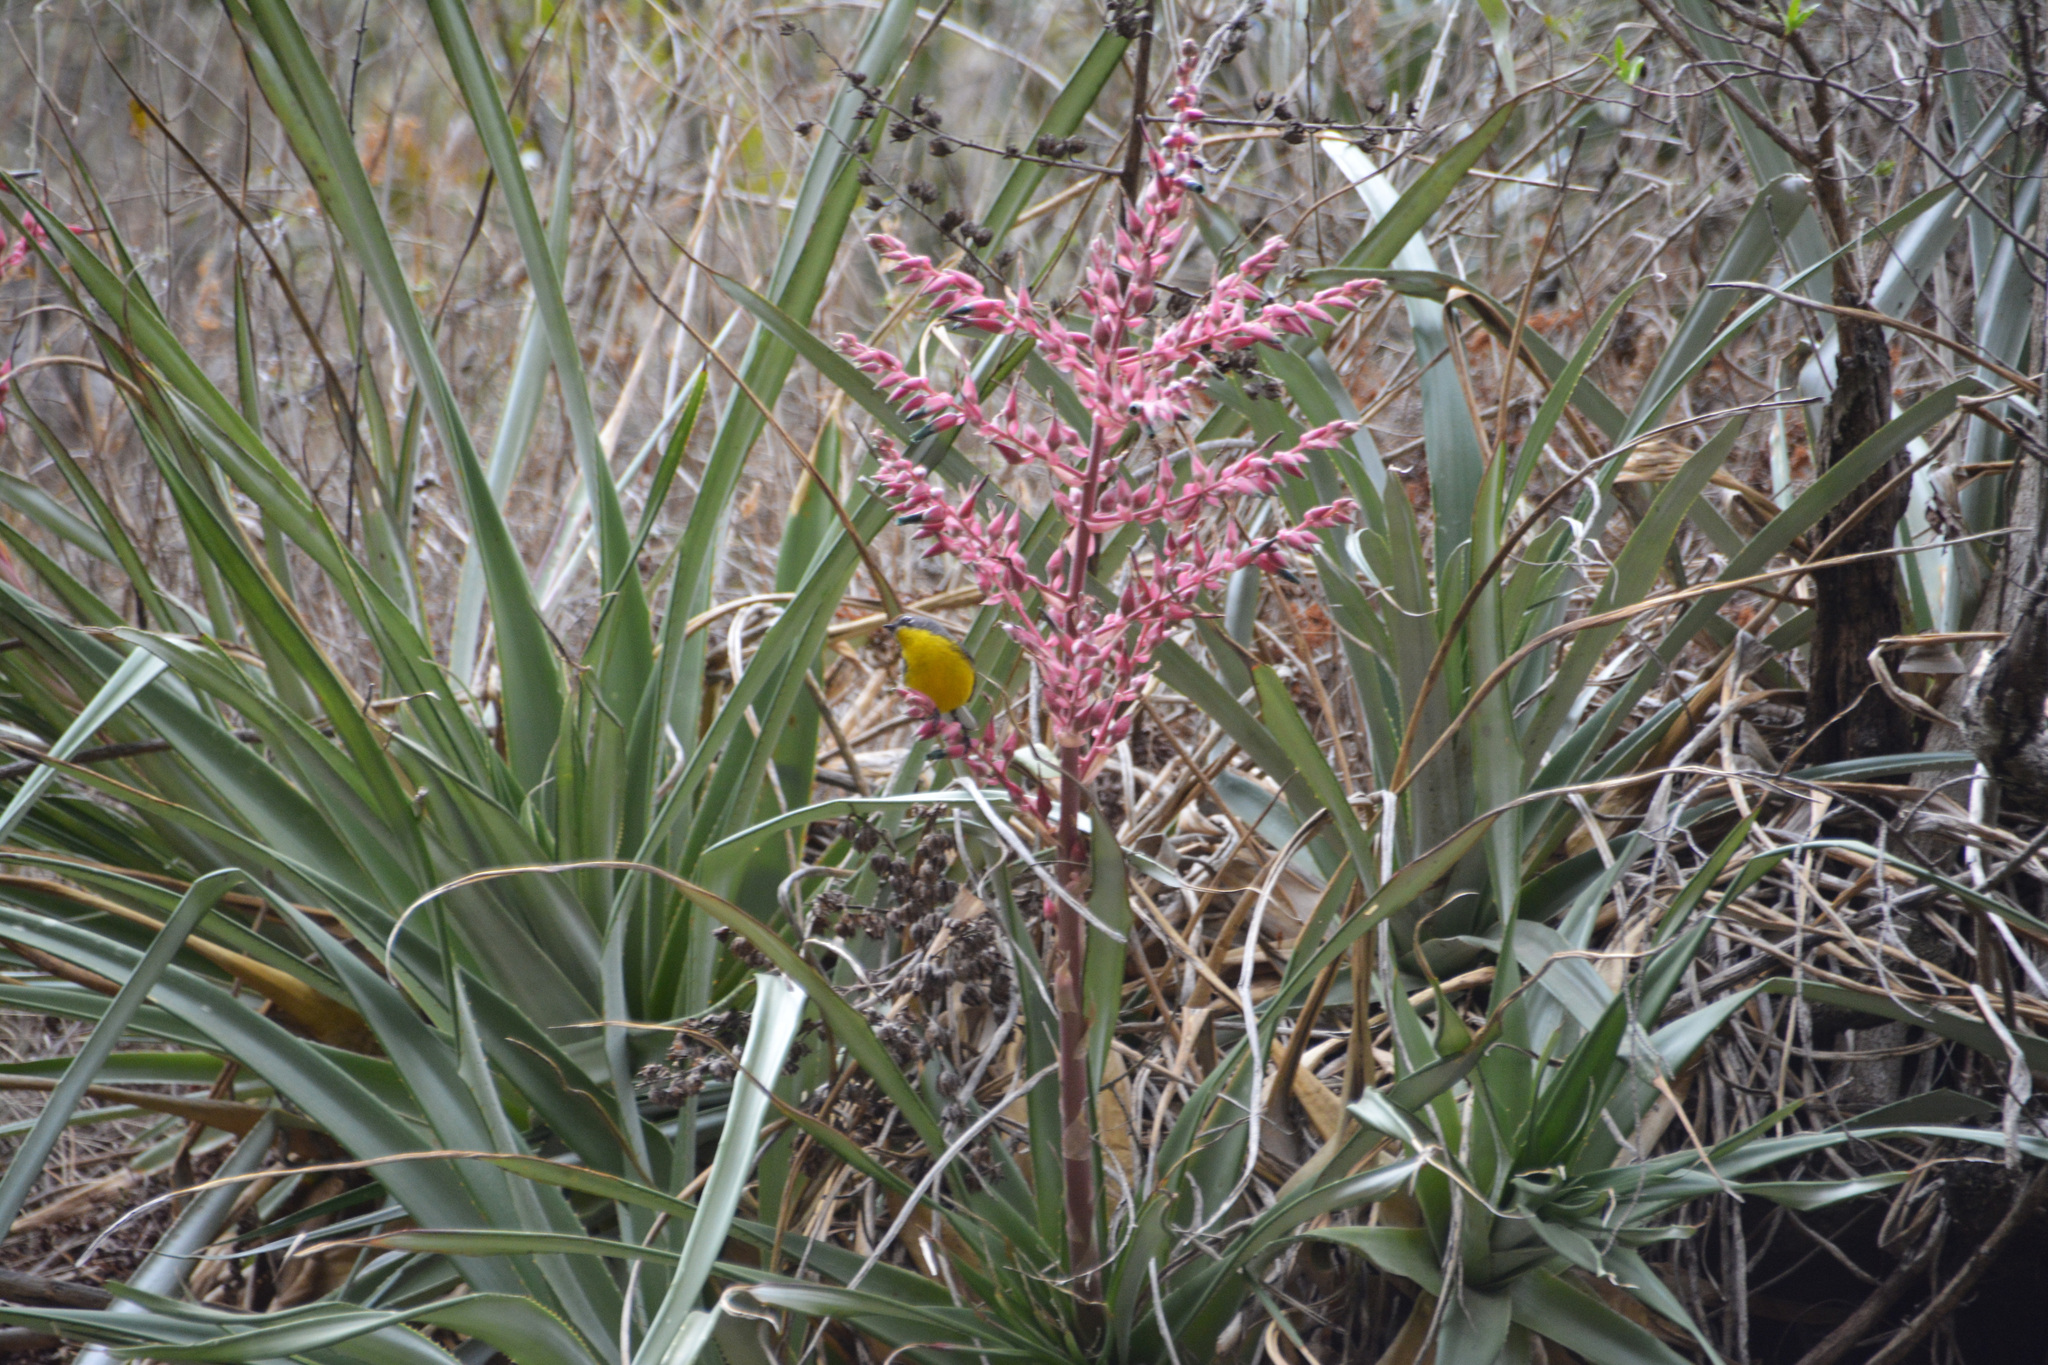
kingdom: Plantae
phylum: Tracheophyta
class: Liliopsida
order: Poales
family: Bromeliaceae
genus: Puya
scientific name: Puya spathacea
